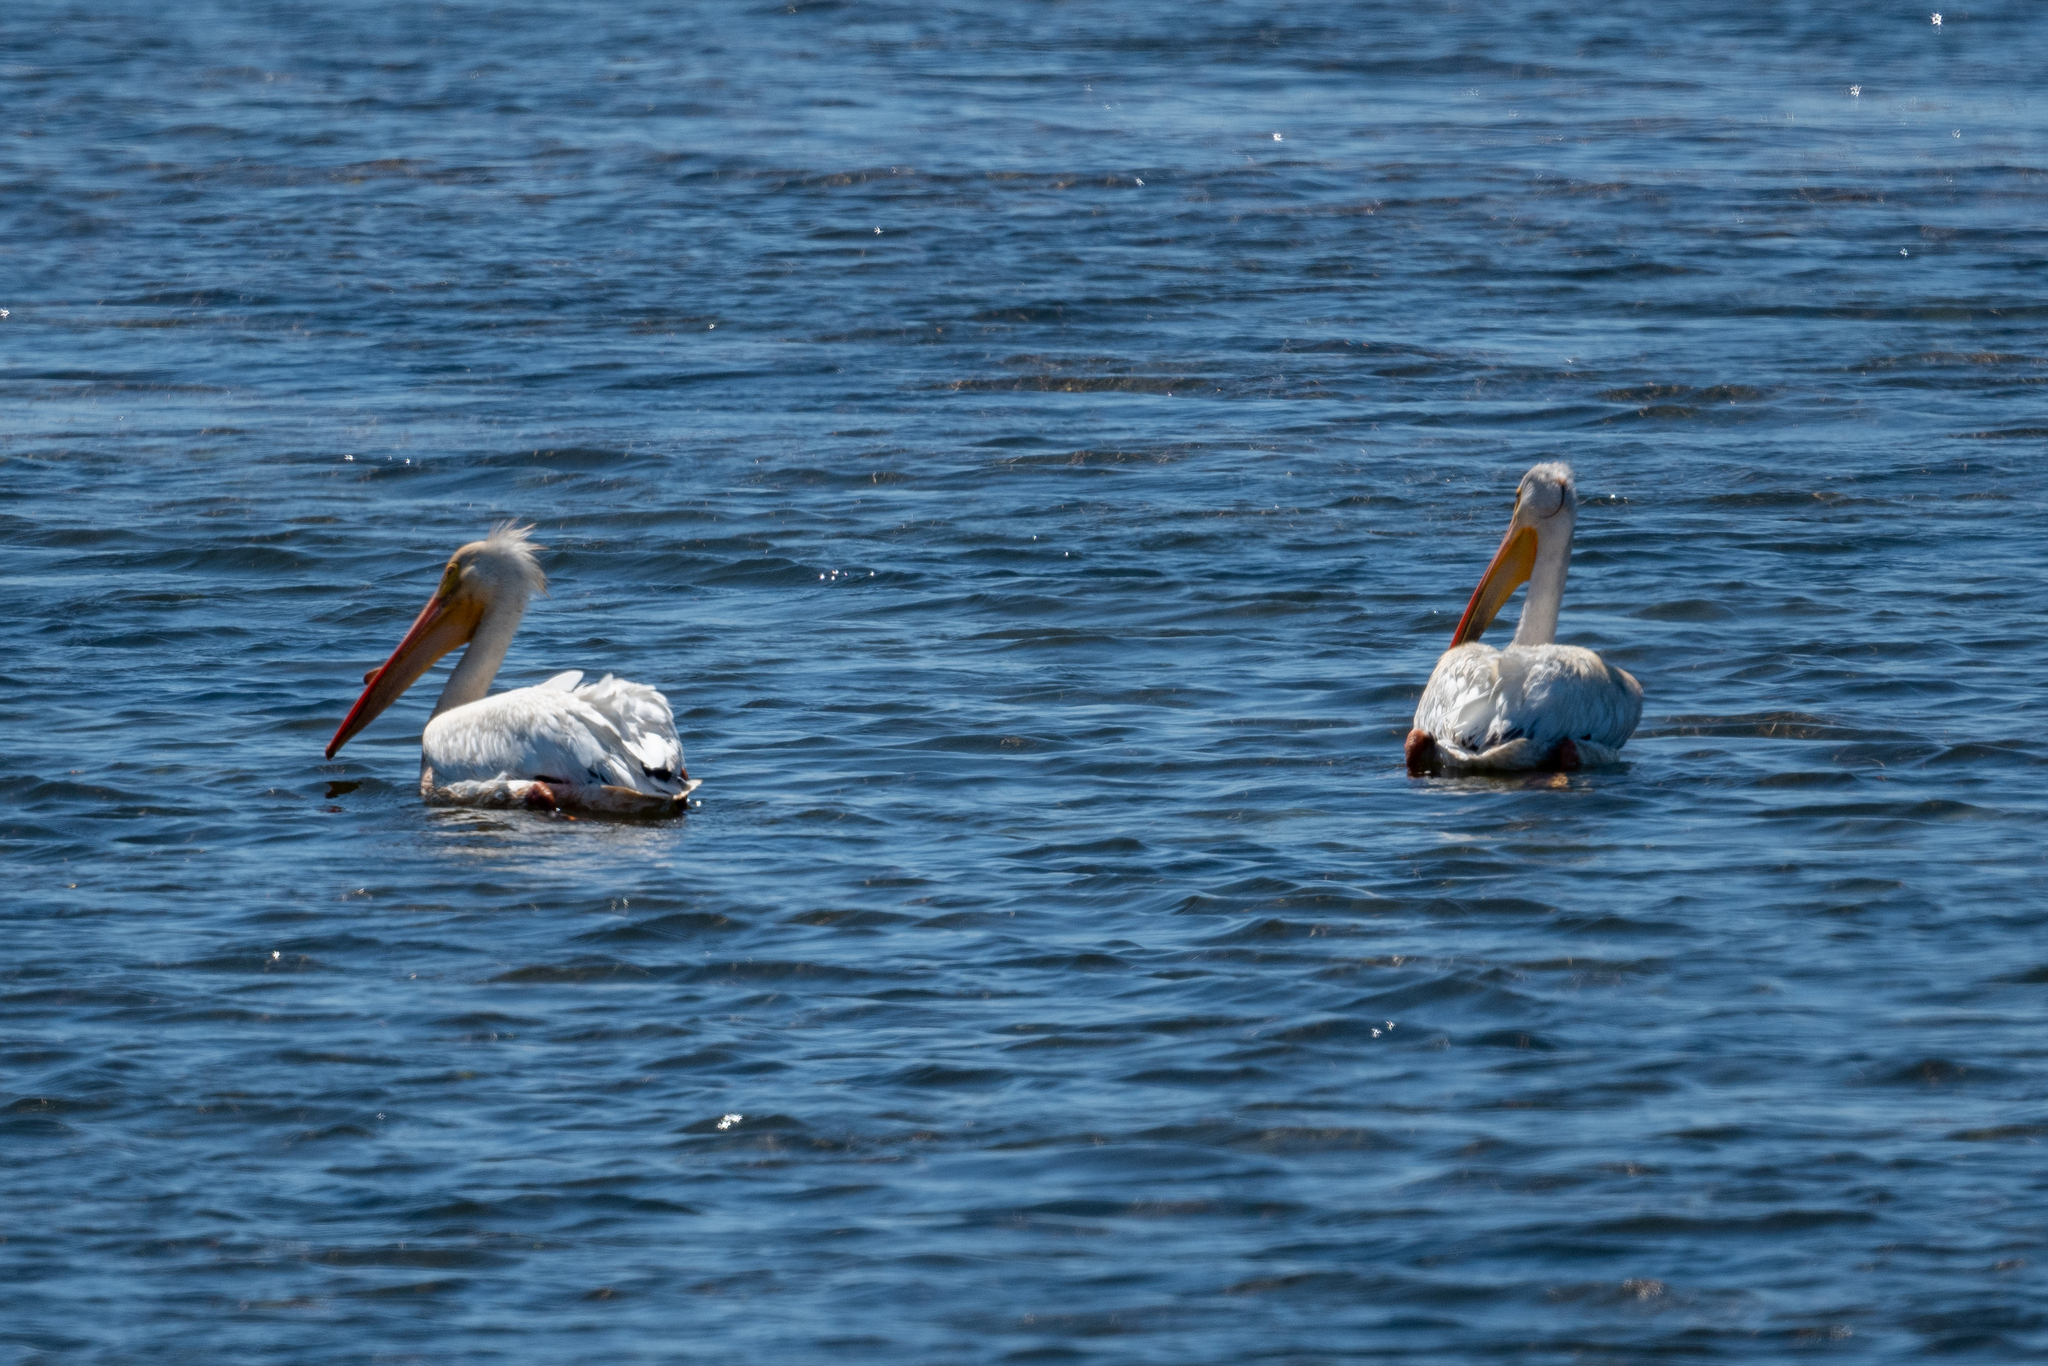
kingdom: Animalia
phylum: Chordata
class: Aves
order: Pelecaniformes
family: Pelecanidae
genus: Pelecanus
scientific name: Pelecanus erythrorhynchos
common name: American white pelican
